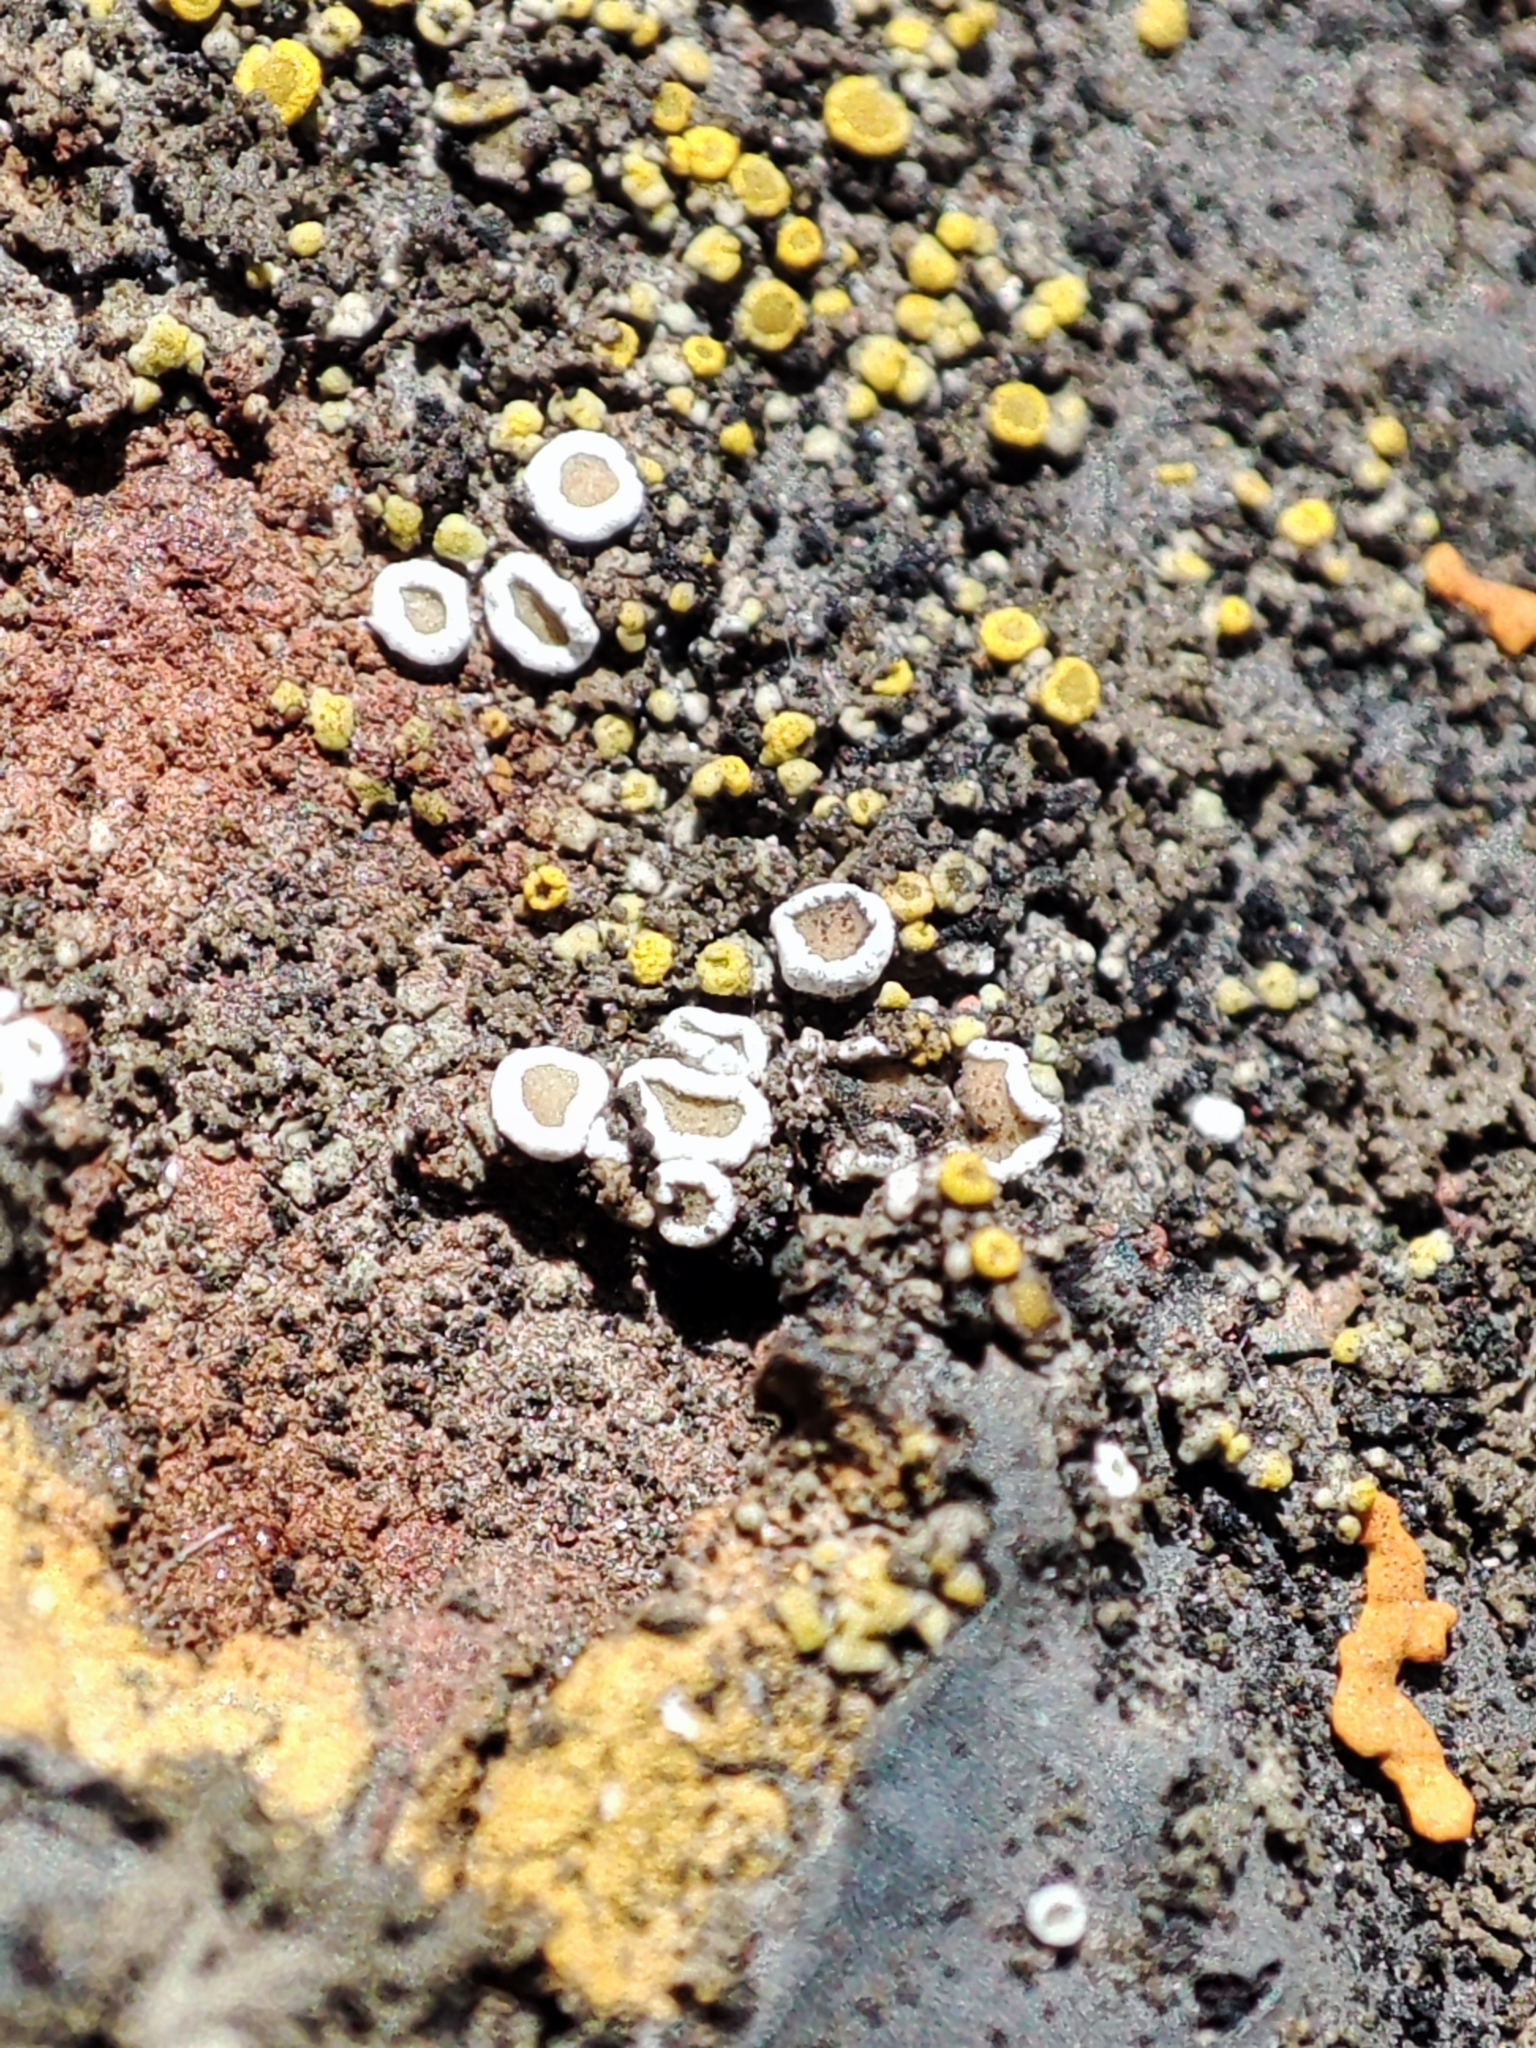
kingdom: Fungi
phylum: Ascomycota
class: Lecanoromycetes
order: Lecanorales
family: Lecanoraceae
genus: Polyozosia
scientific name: Polyozosia semipallida
